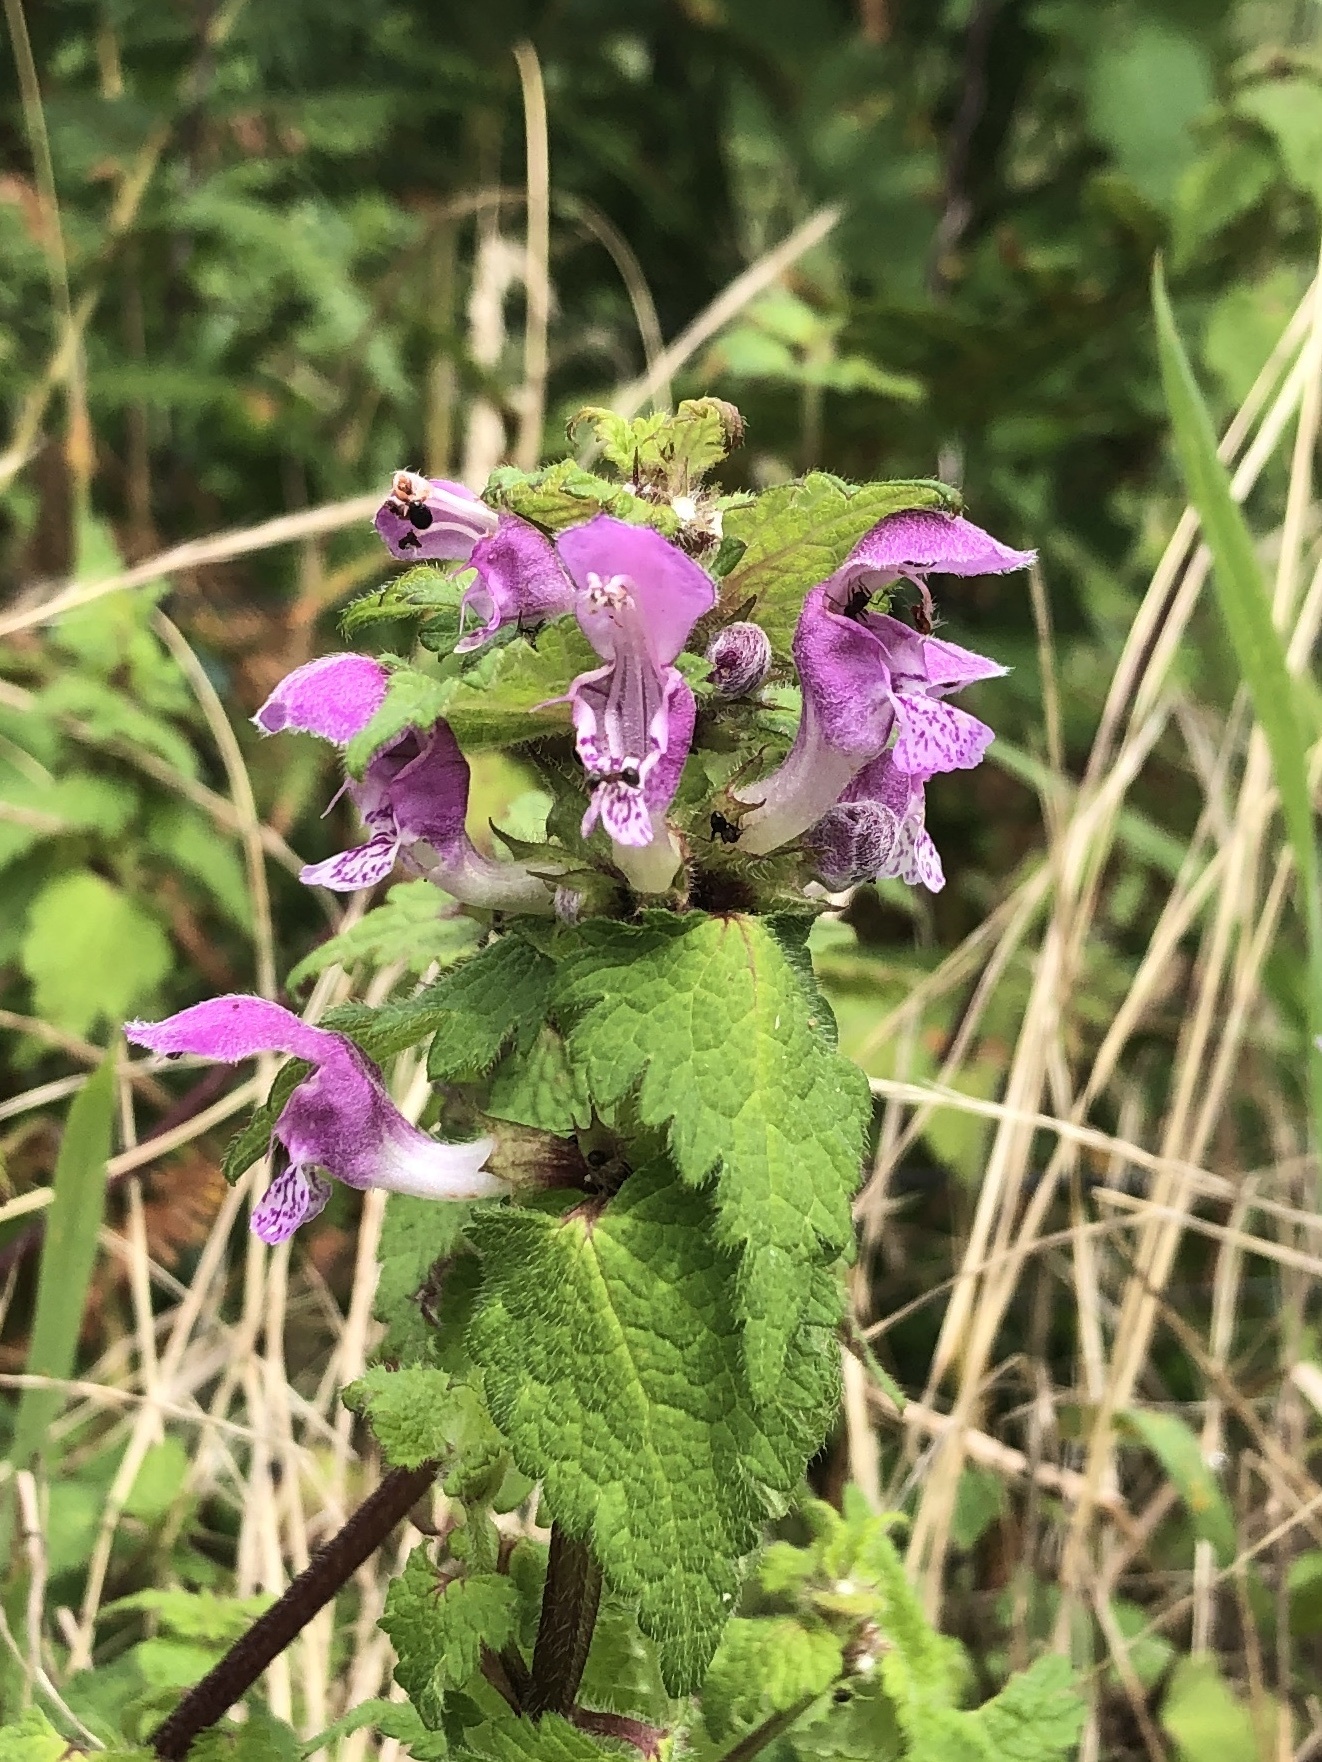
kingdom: Plantae
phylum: Tracheophyta
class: Magnoliopsida
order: Lamiales
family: Lamiaceae
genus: Lamium
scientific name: Lamium maculatum
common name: Spotted dead-nettle
